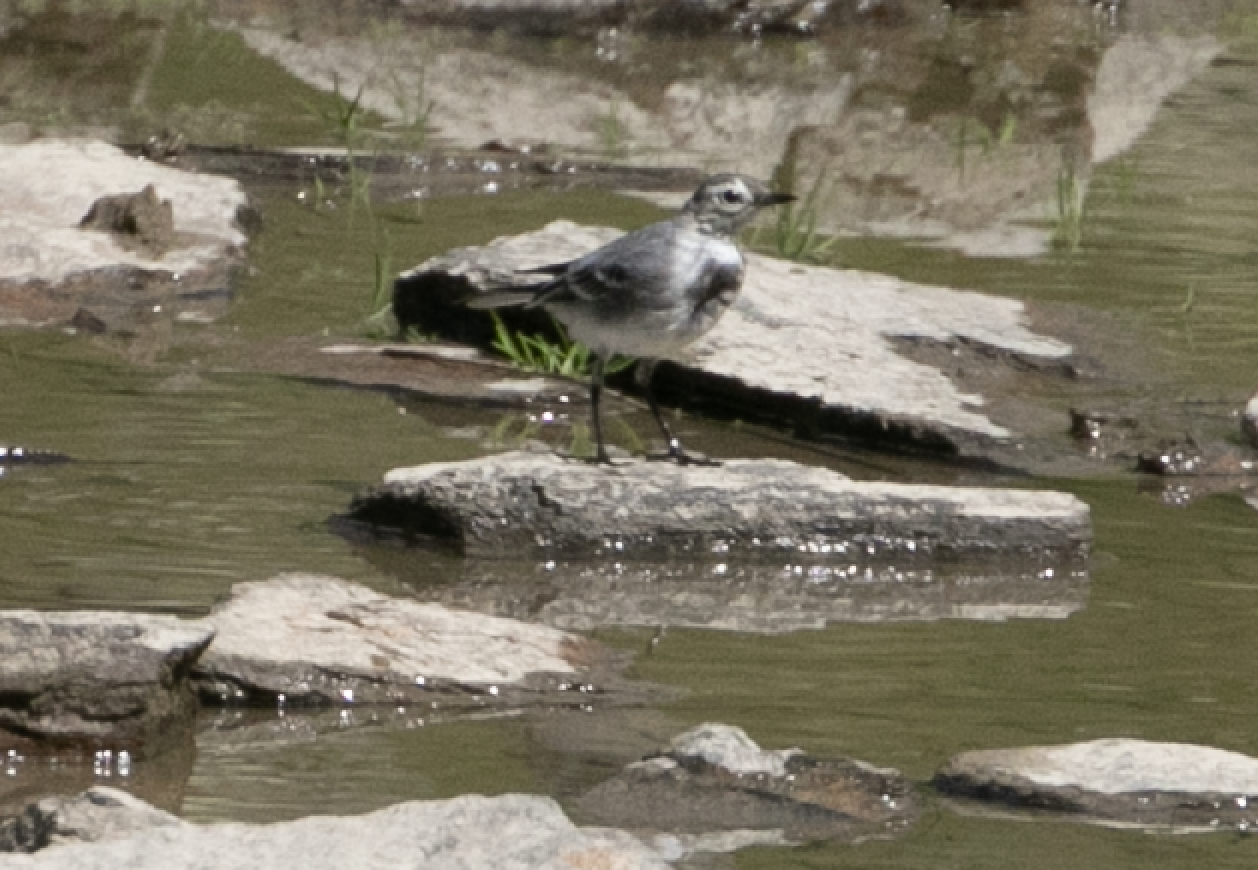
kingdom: Animalia
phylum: Chordata
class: Aves
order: Passeriformes
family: Motacillidae
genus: Motacilla
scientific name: Motacilla alba
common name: White wagtail
